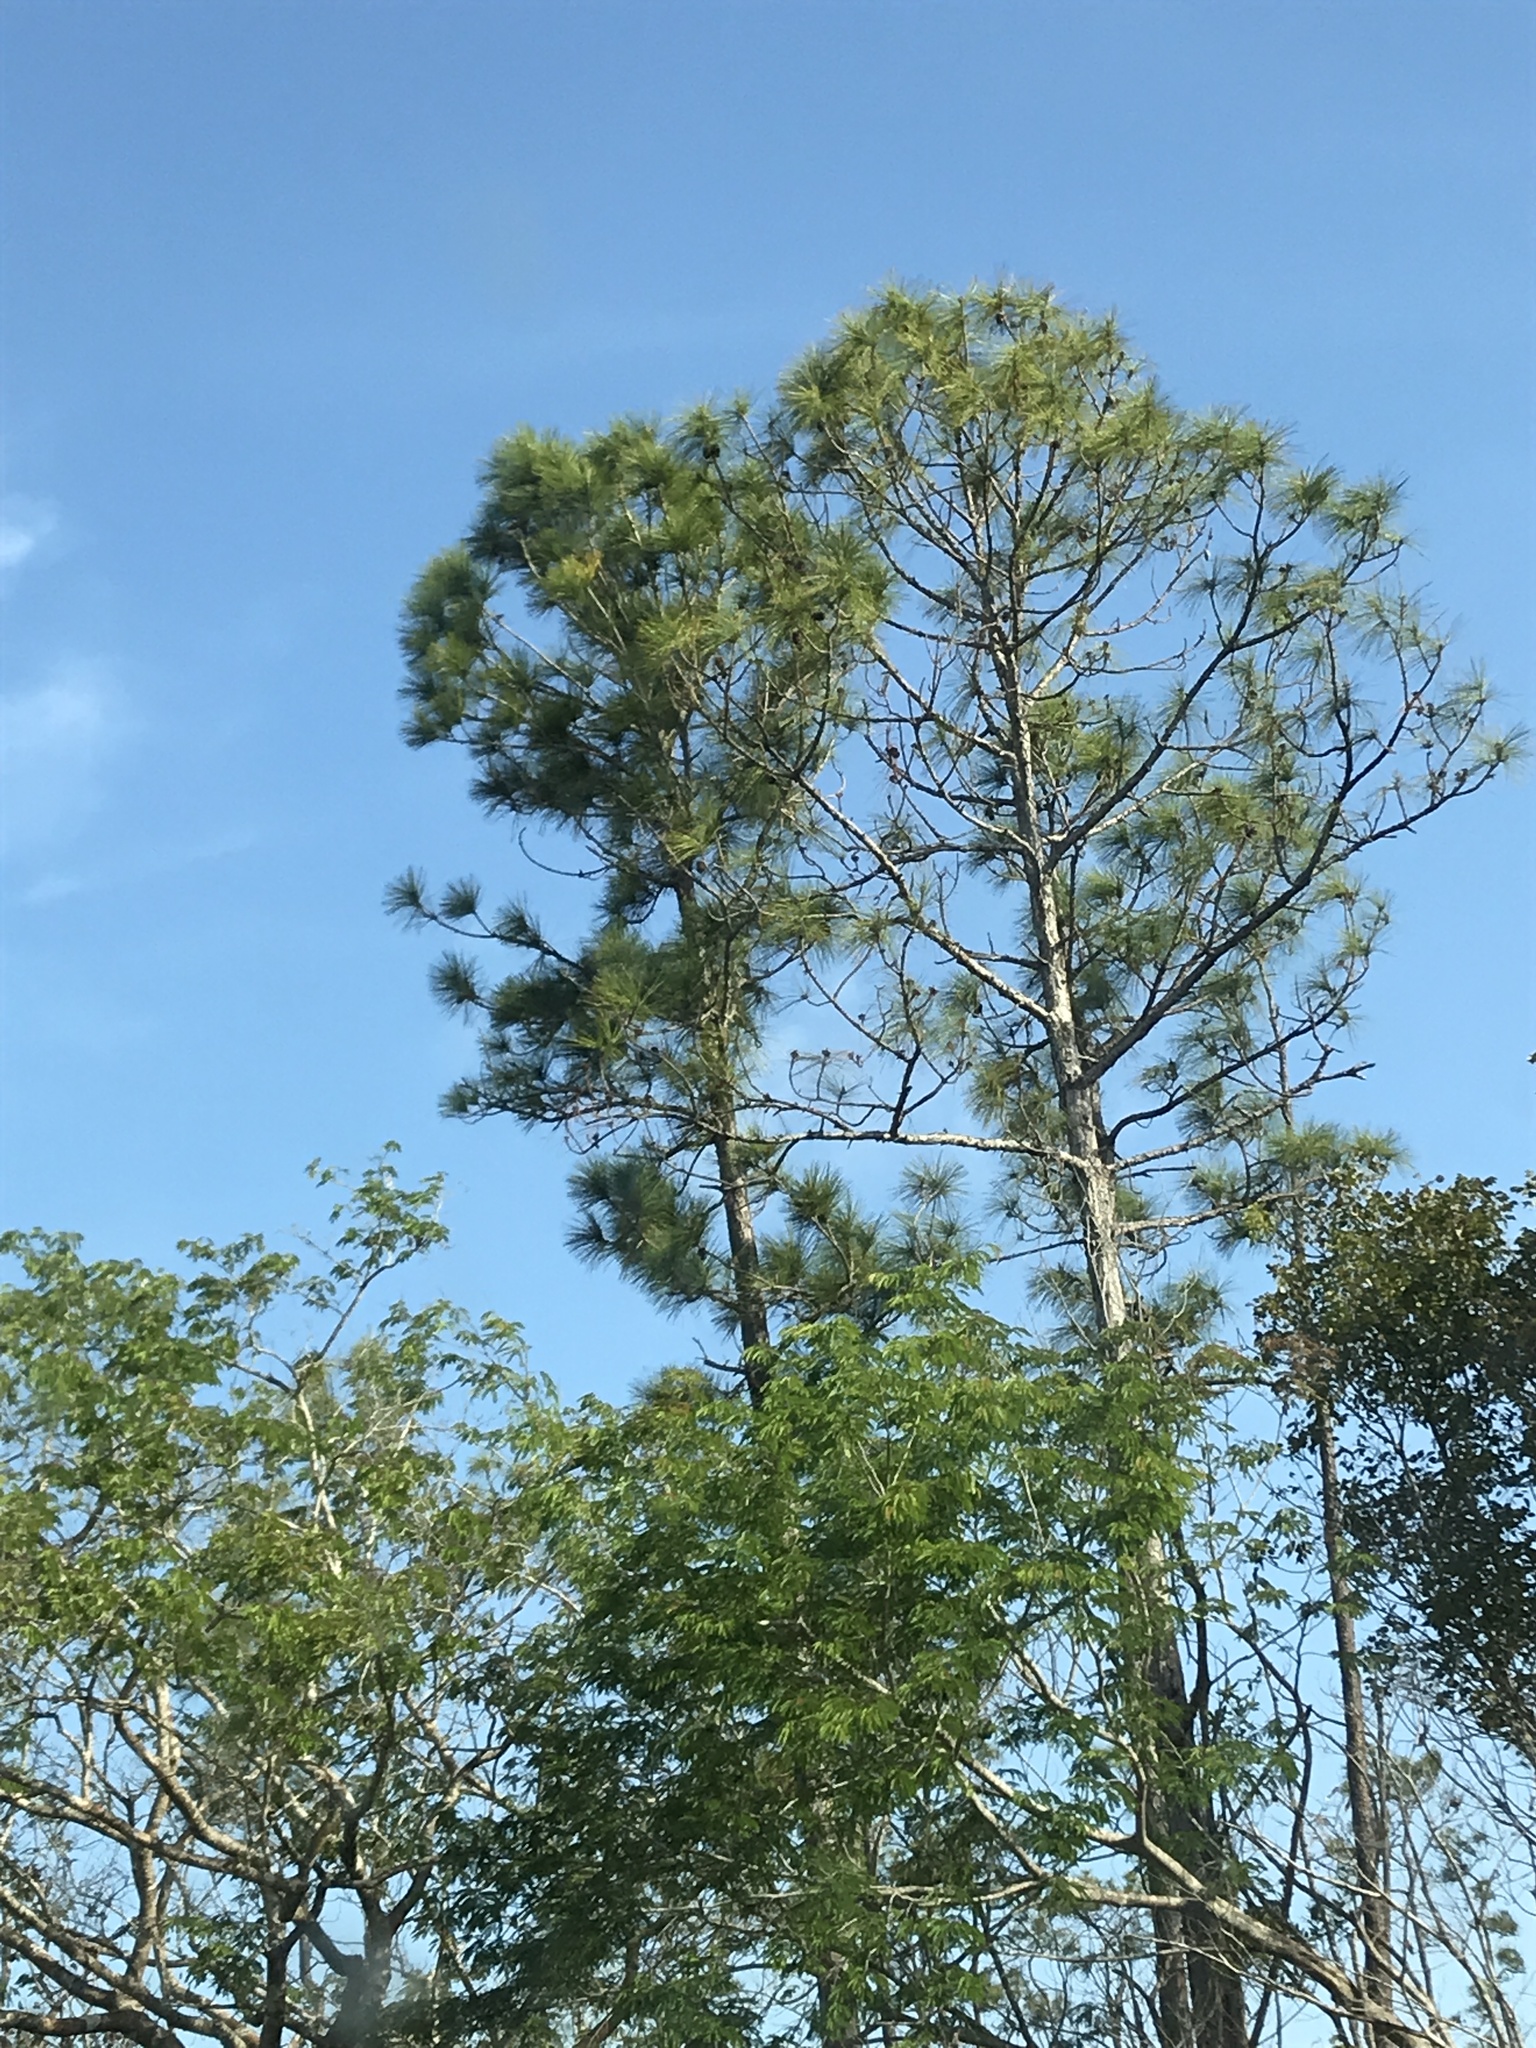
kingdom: Plantae
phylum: Tracheophyta
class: Pinopsida
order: Pinales
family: Pinaceae
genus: Pinus
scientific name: Pinus elliottii
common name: Slash pine
